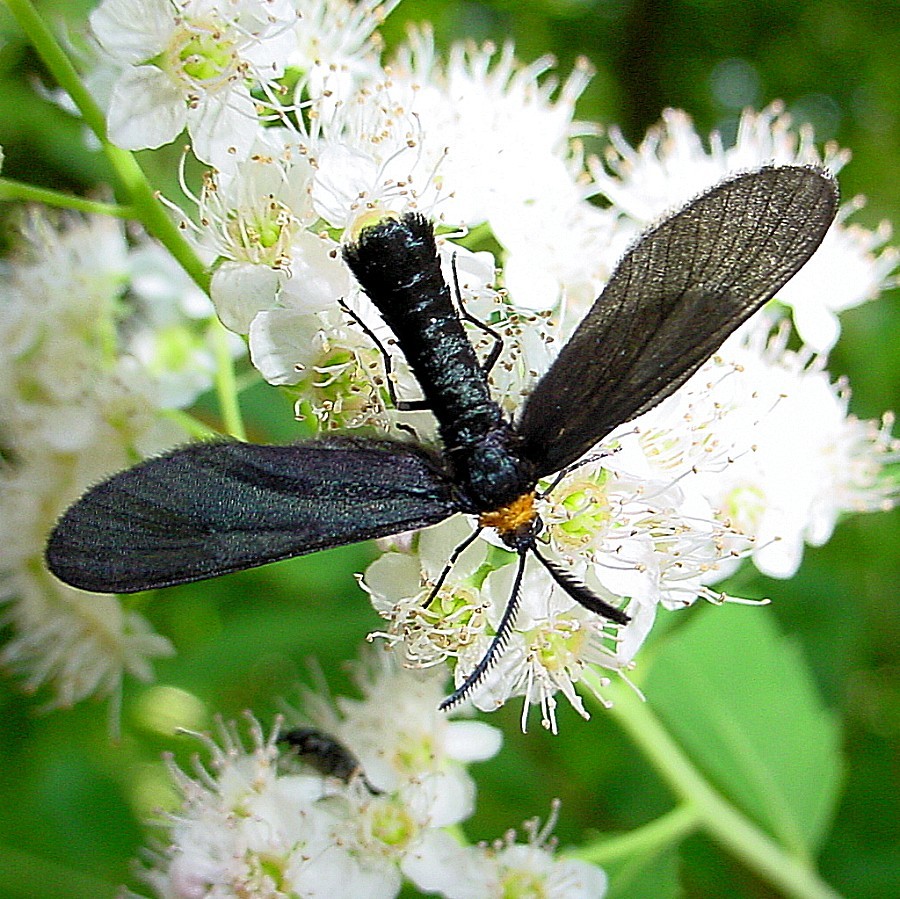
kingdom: Animalia
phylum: Arthropoda
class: Insecta
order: Lepidoptera
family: Zygaenidae
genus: Harrisina
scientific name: Harrisina americana
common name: Grapeleaf skeletonizer moth
